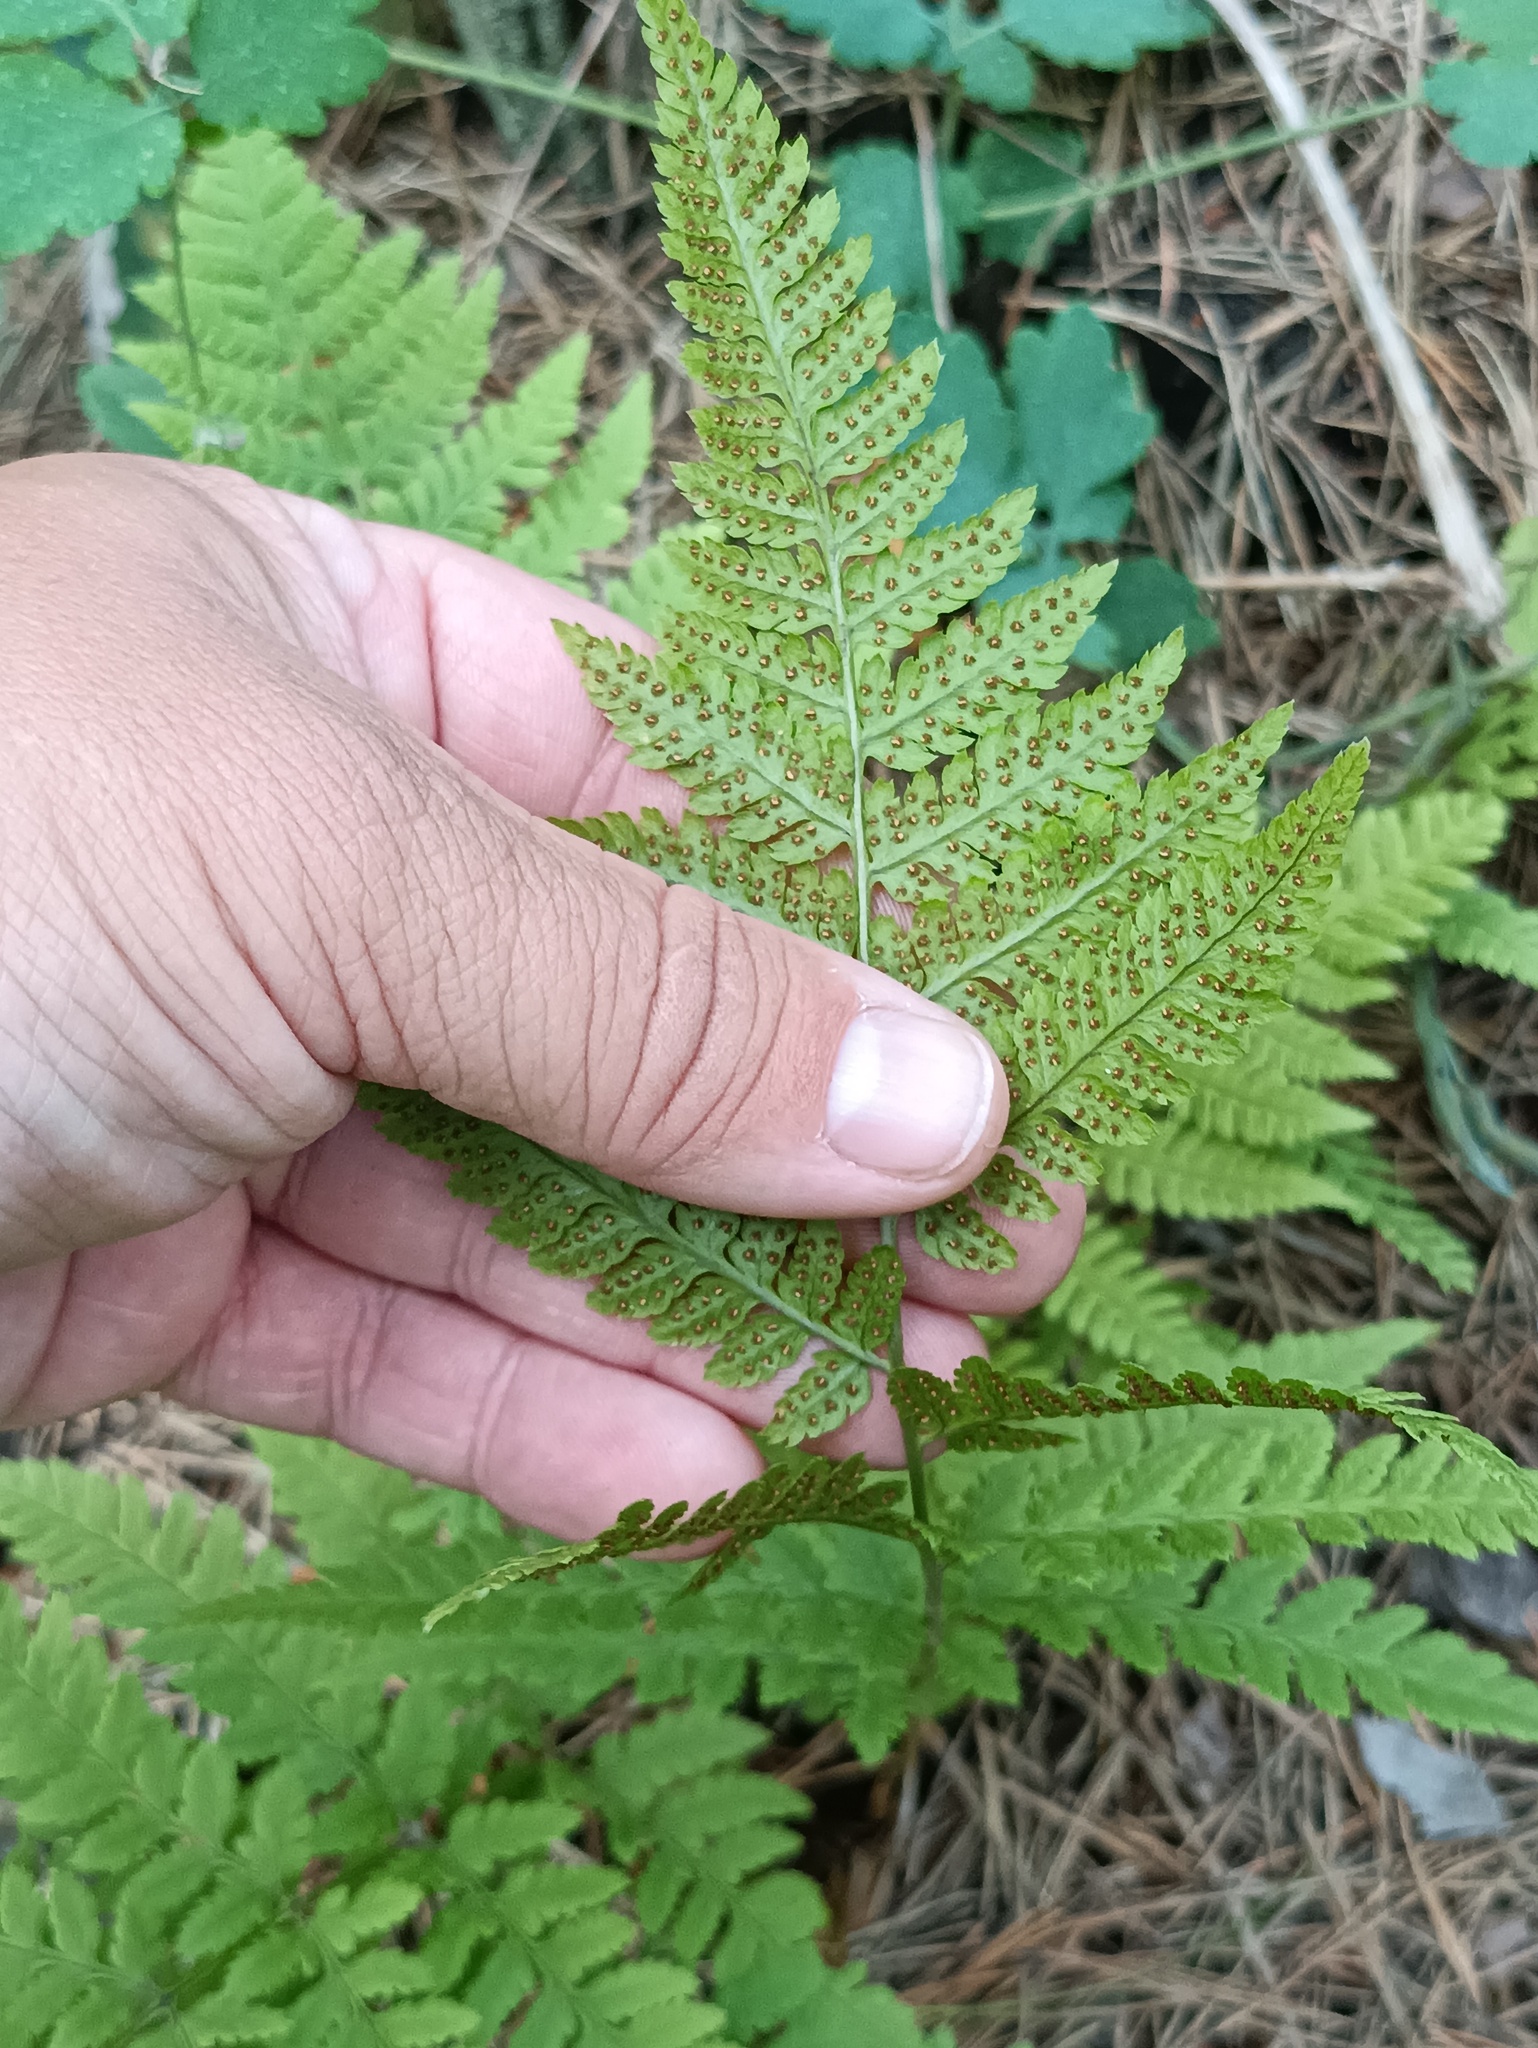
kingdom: Plantae
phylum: Tracheophyta
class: Polypodiopsida
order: Polypodiales
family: Dryopteridaceae
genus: Dryopteris
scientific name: Dryopteris carthusiana
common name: Narrow buckler-fern
